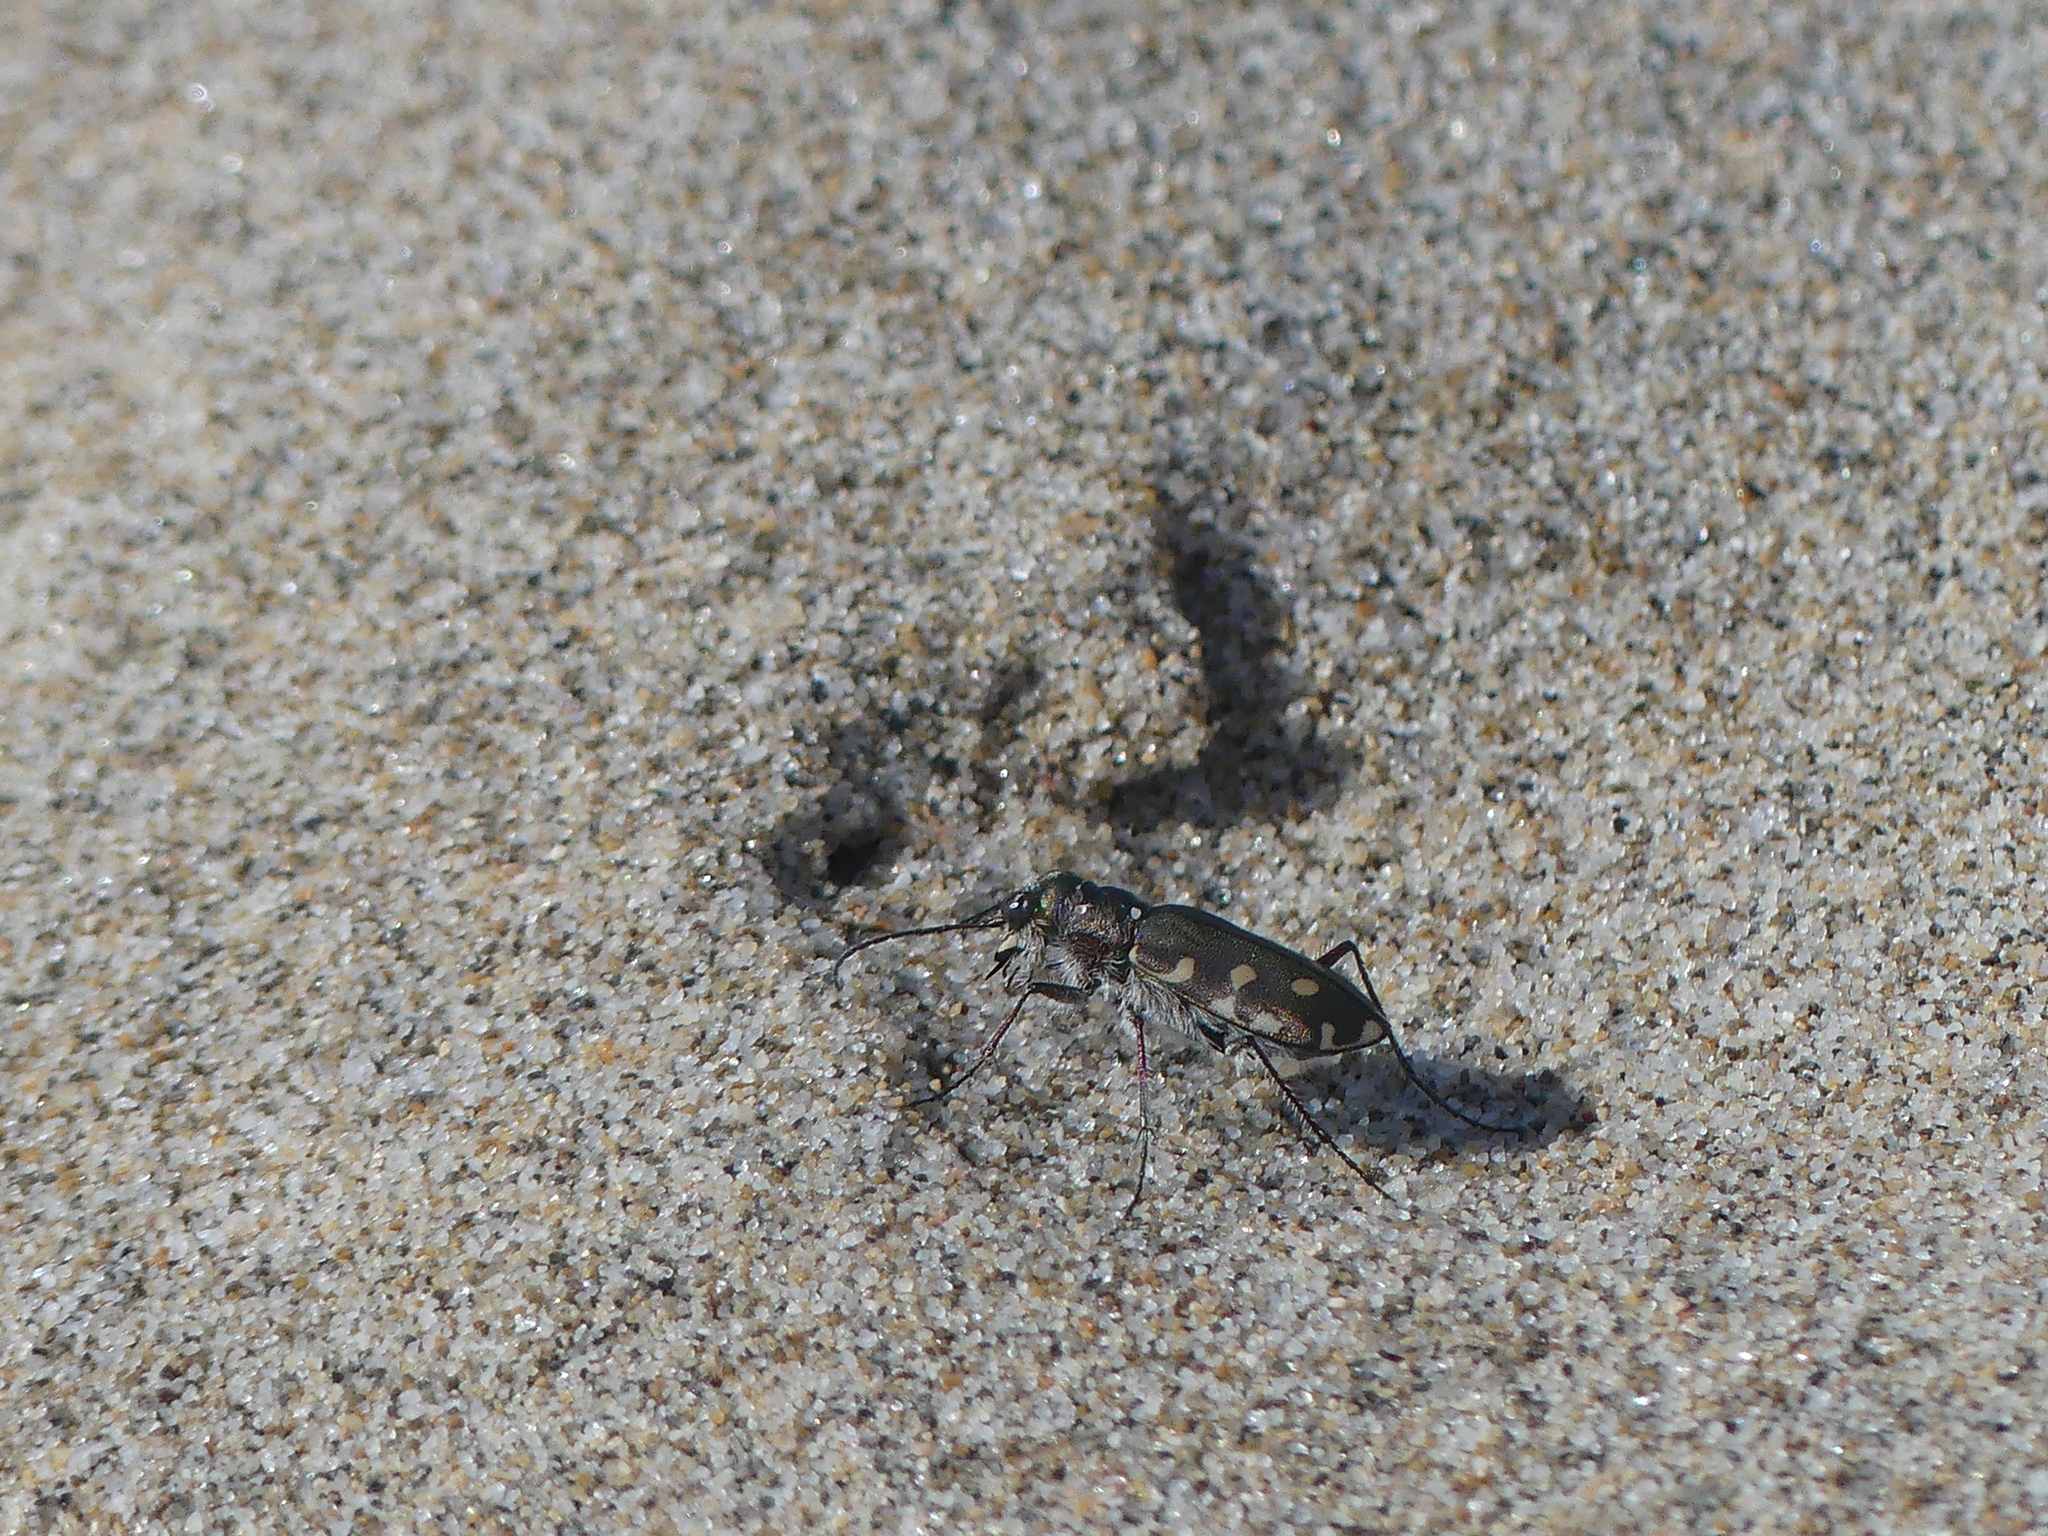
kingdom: Animalia
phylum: Arthropoda
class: Insecta
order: Coleoptera
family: Carabidae
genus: Cicindela
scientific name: Cicindela littoralis
